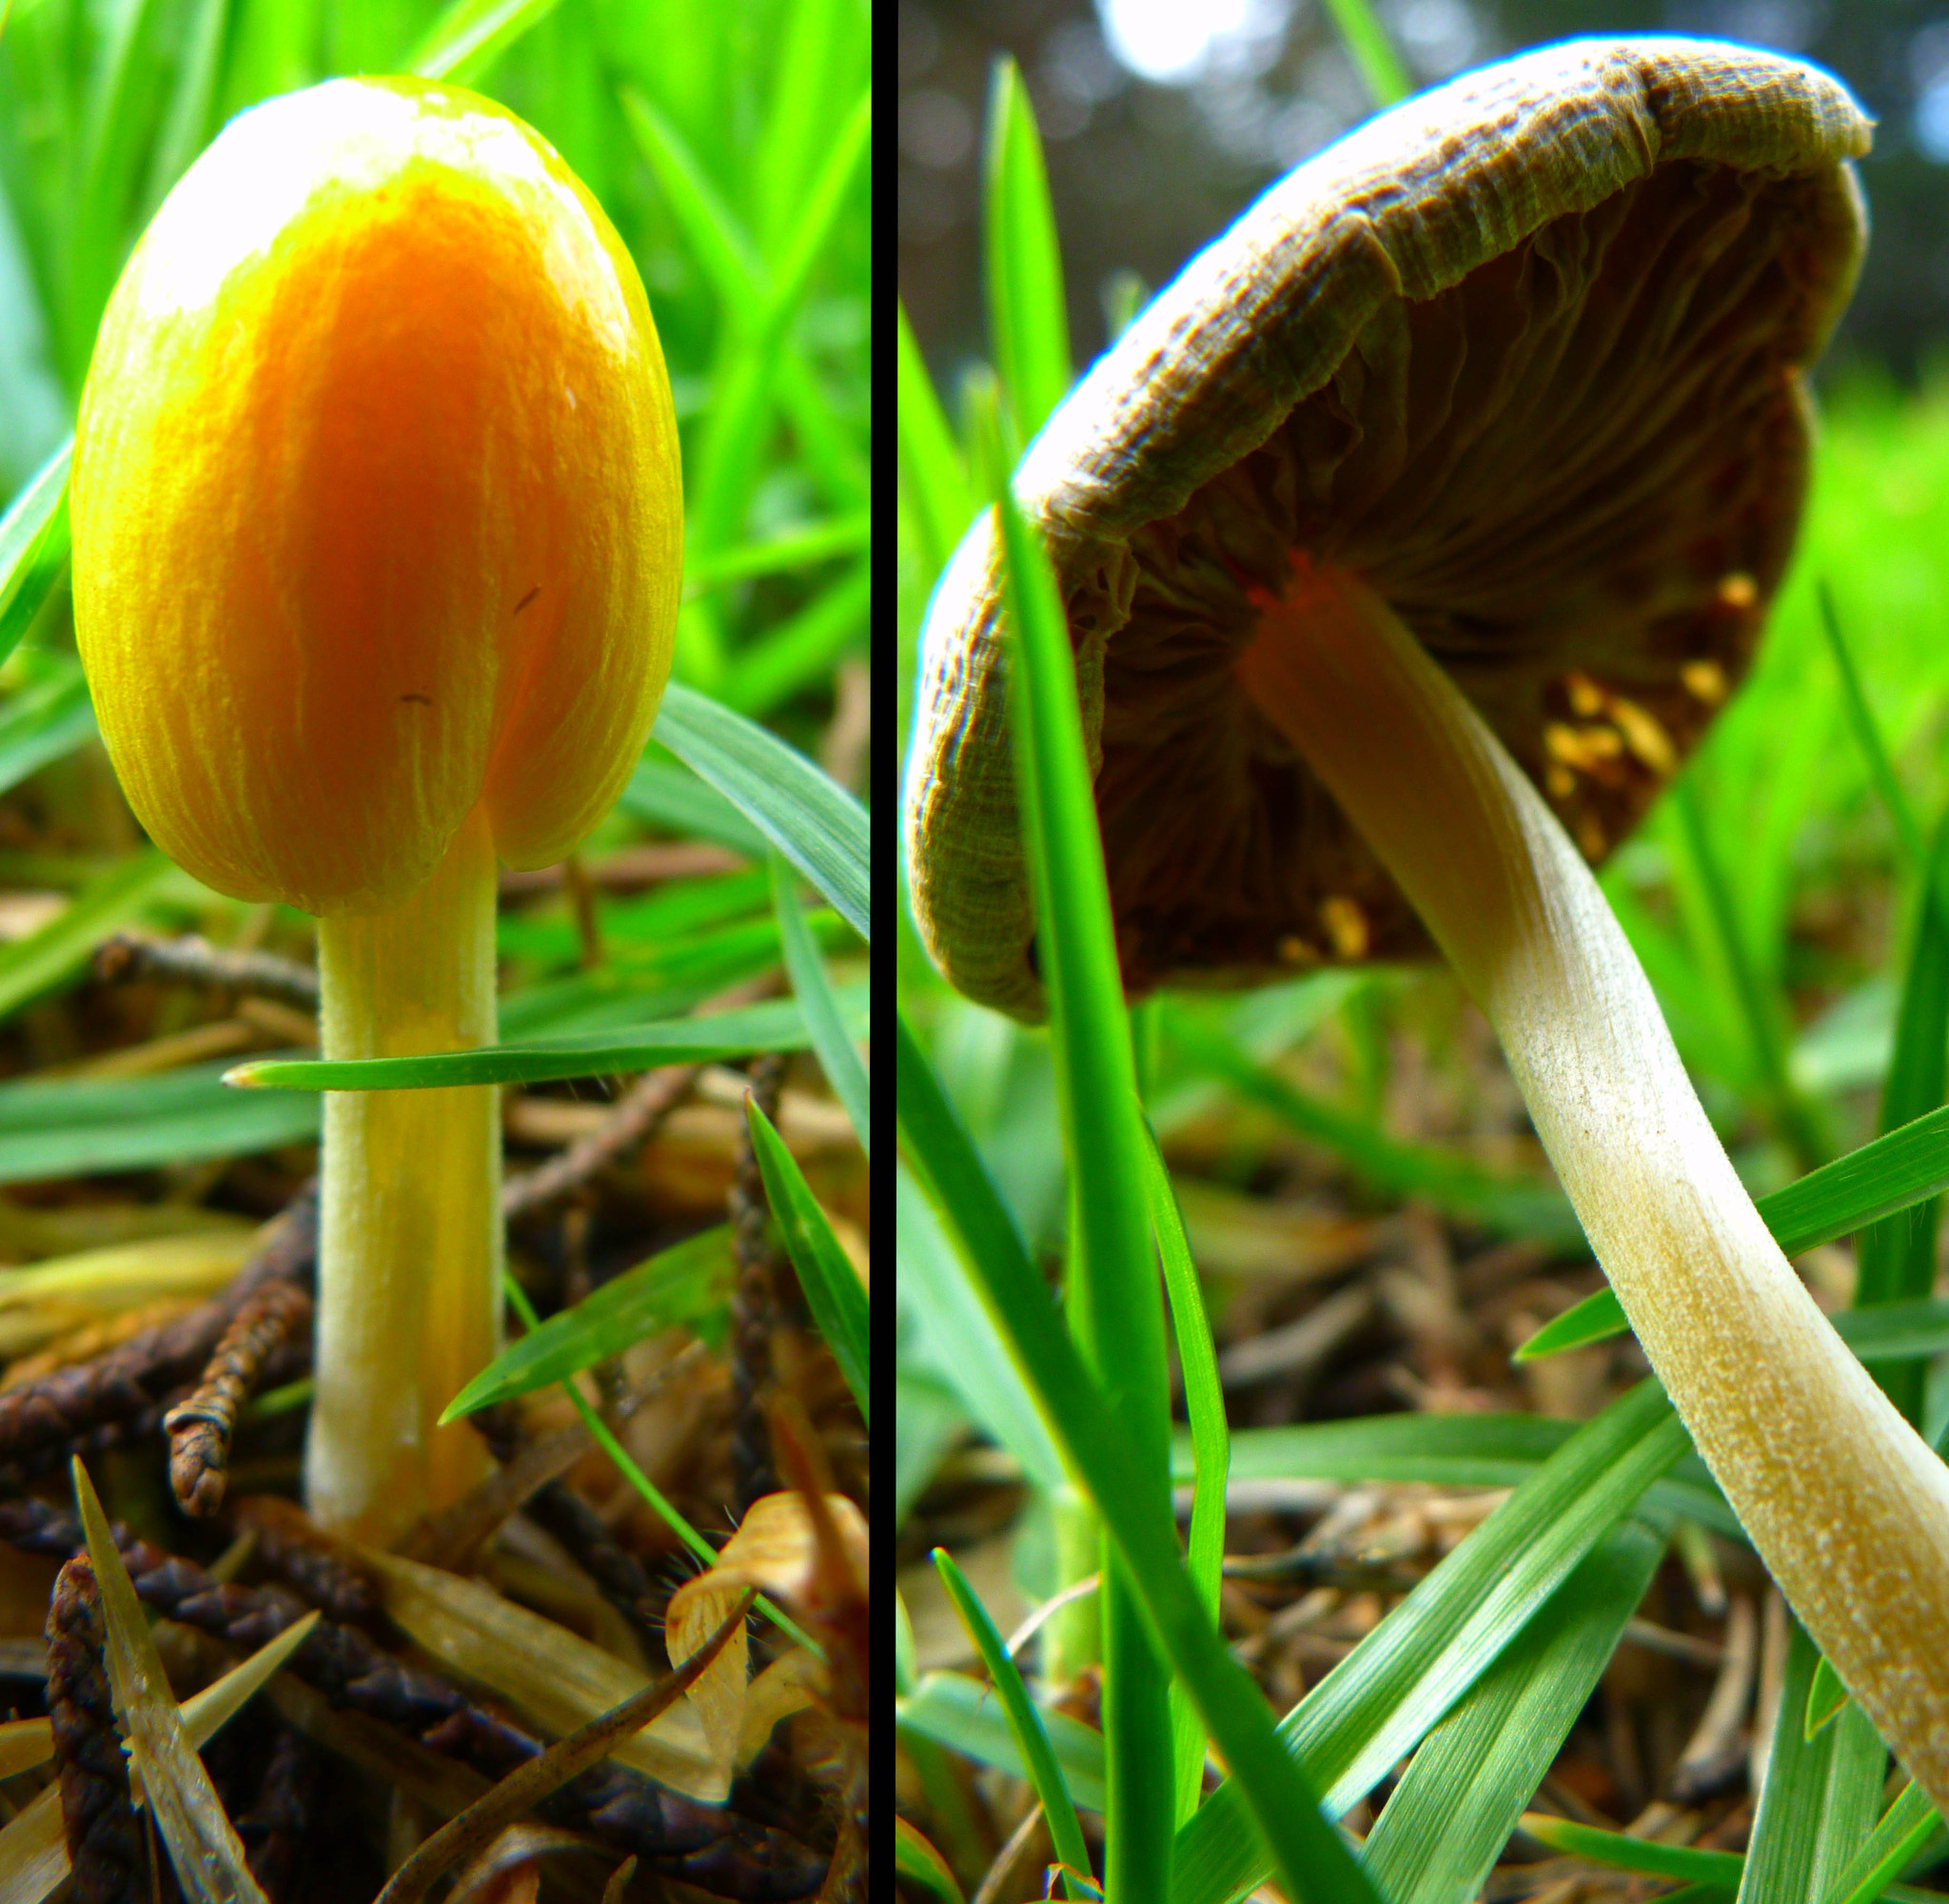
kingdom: Fungi
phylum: Basidiomycota
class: Agaricomycetes
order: Agaricales
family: Bolbitiaceae
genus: Bolbitius
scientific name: Bolbitius titubans
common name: Yellow fieldcap
